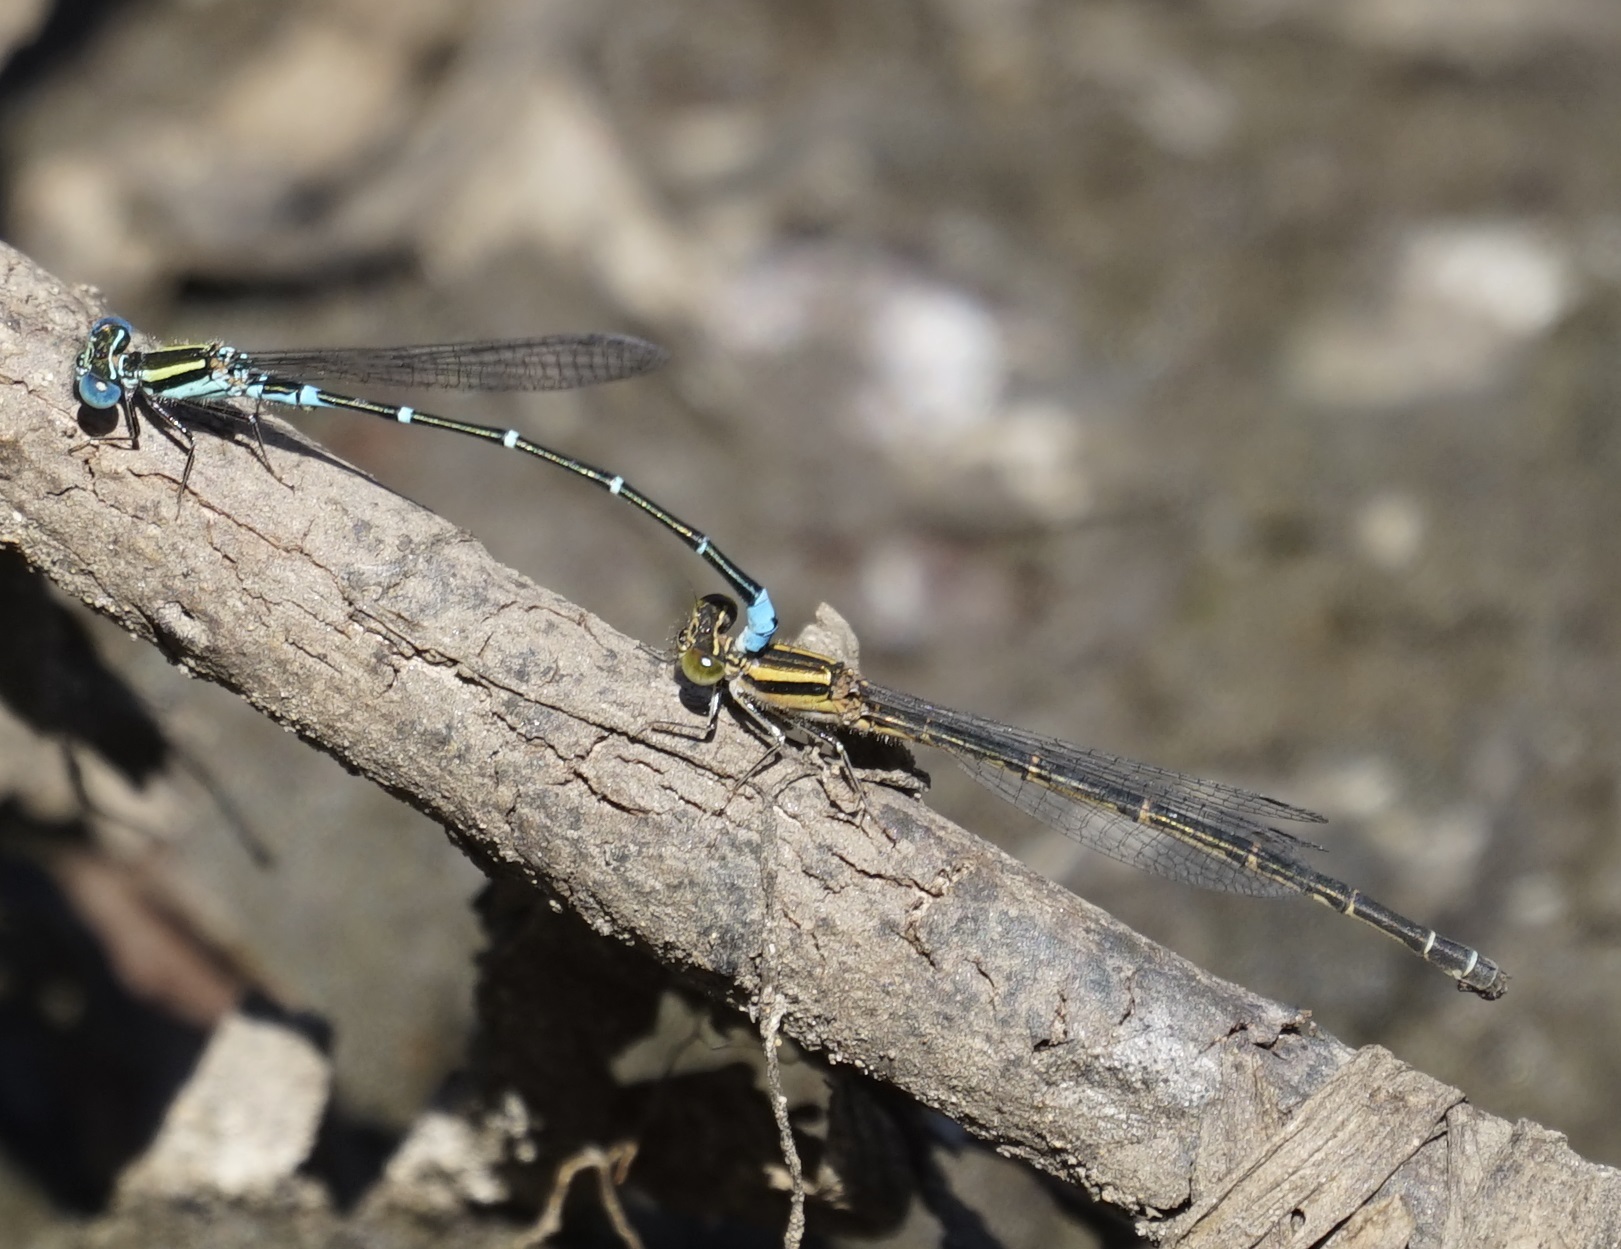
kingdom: Animalia
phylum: Arthropoda
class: Insecta
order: Odonata
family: Coenagrionidae
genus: Austroagrion
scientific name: Austroagrion watsoni
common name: Eastern billabongfly
